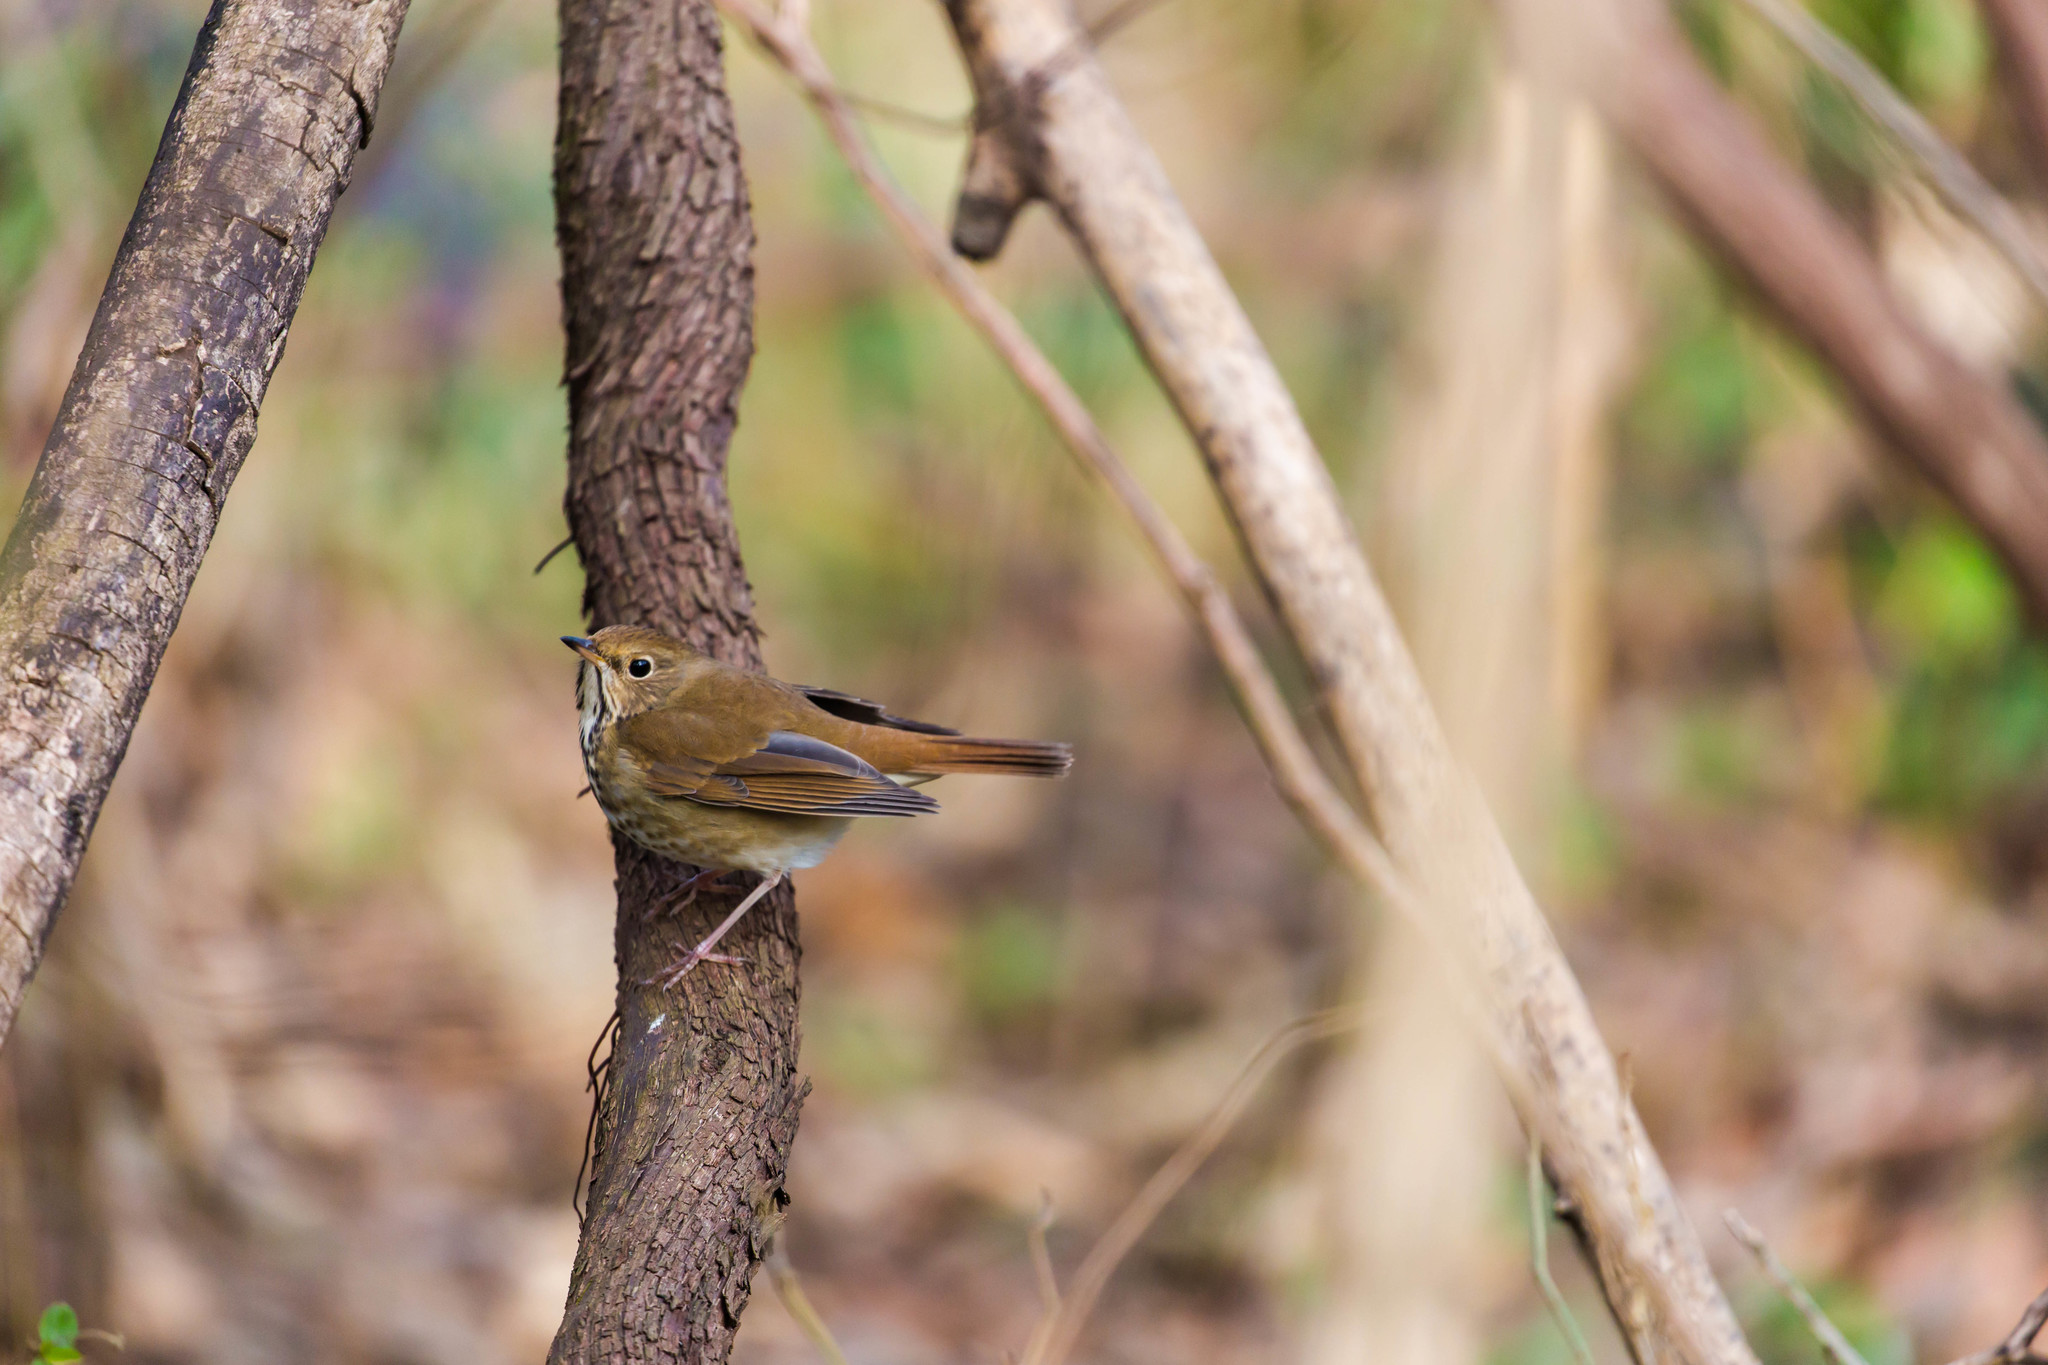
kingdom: Animalia
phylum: Chordata
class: Aves
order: Passeriformes
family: Turdidae
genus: Catharus
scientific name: Catharus guttatus
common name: Hermit thrush
